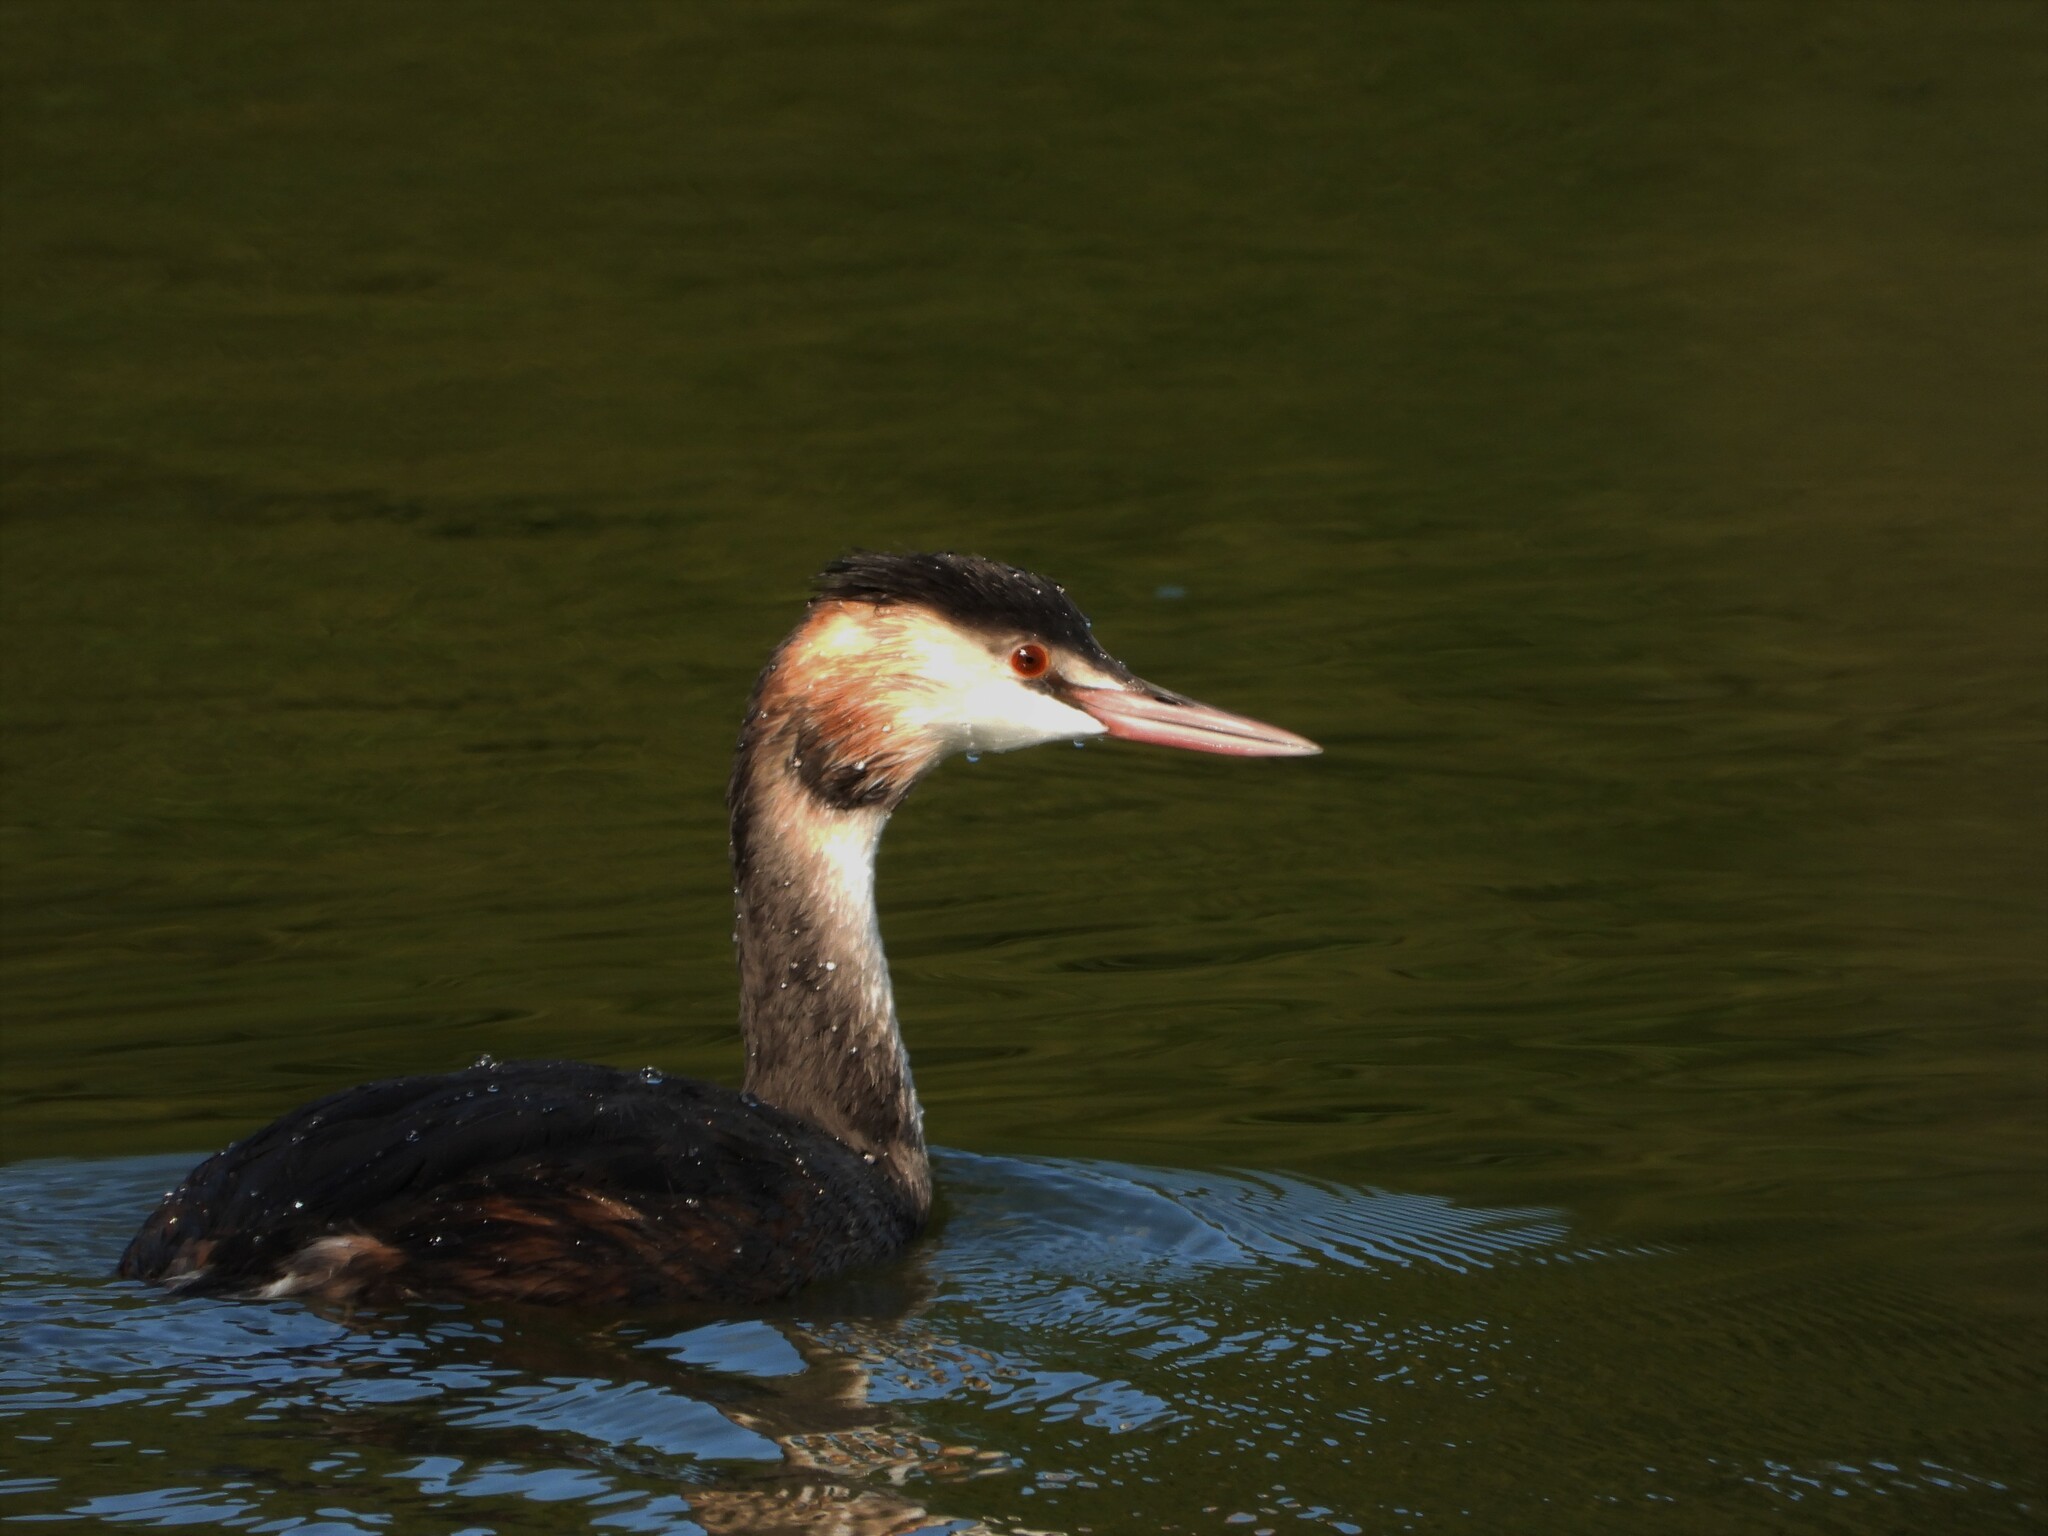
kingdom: Animalia
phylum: Chordata
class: Aves
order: Podicipediformes
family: Podicipedidae
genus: Podiceps
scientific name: Podiceps cristatus
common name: Great crested grebe
